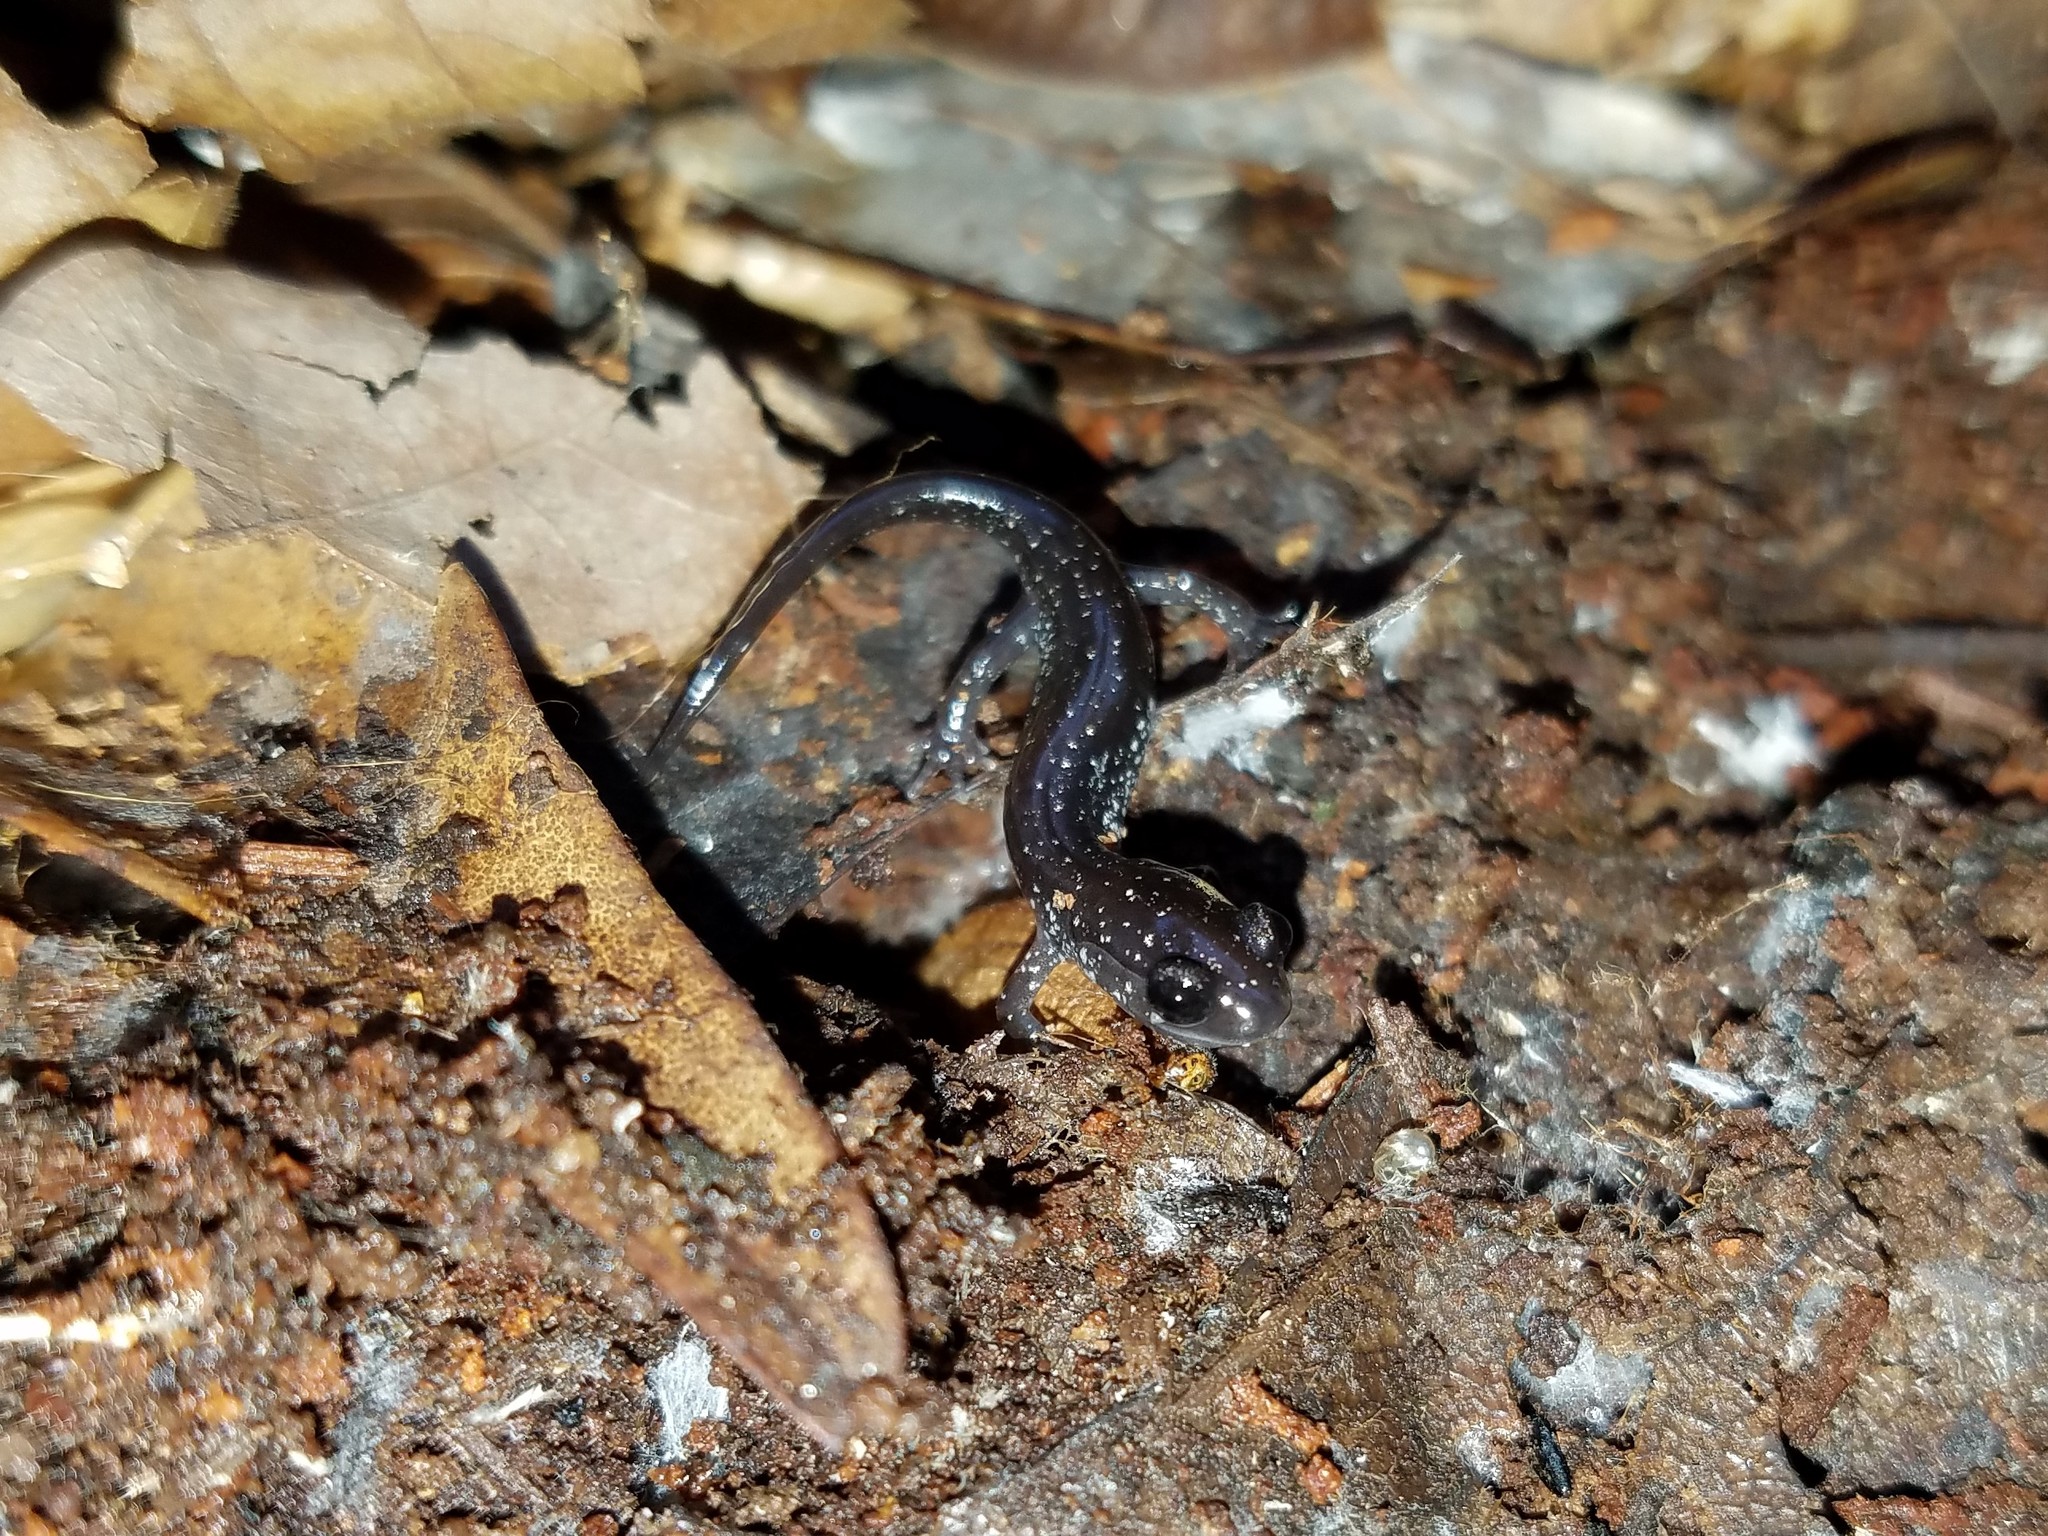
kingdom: Animalia
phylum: Chordata
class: Amphibia
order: Caudata
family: Plethodontidae
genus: Plethodon
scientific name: Plethodon
